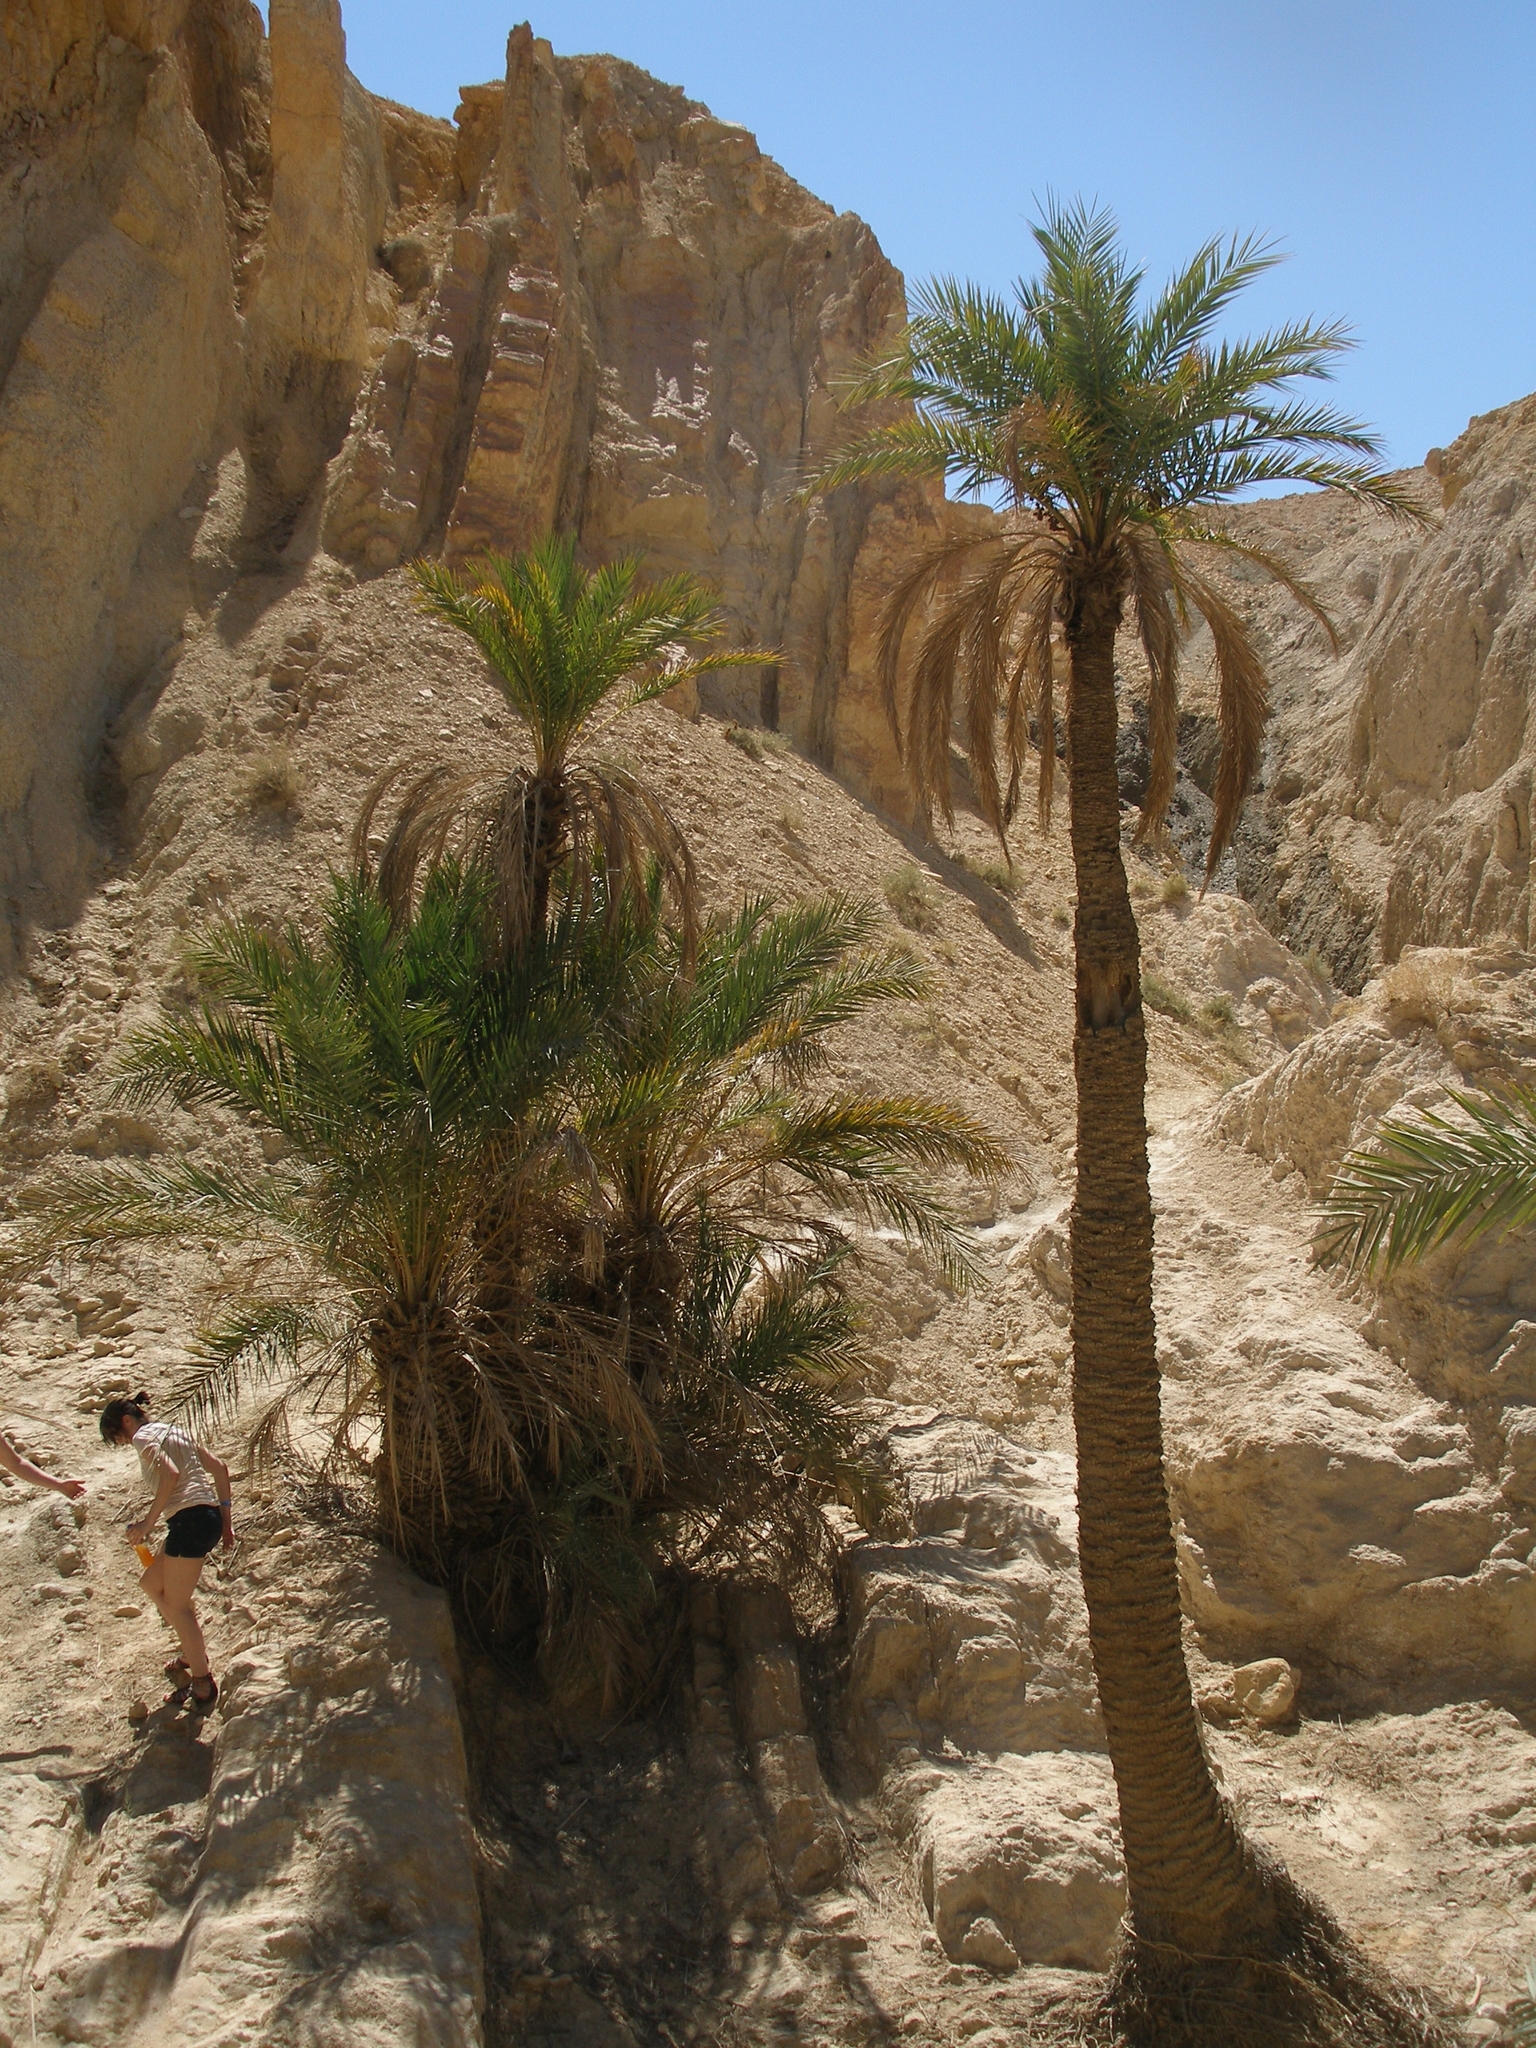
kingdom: Plantae
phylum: Tracheophyta
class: Liliopsida
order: Arecales
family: Arecaceae
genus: Phoenix
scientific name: Phoenix dactylifera
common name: Date palm
